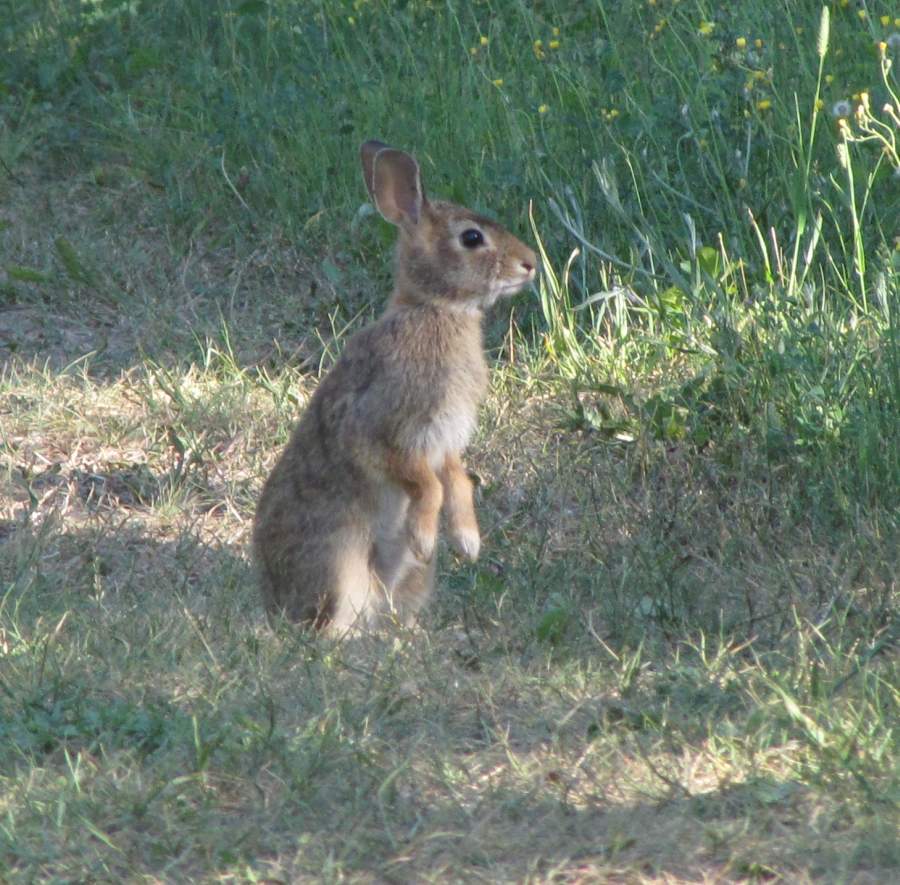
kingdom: Animalia
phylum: Chordata
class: Mammalia
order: Lagomorpha
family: Leporidae
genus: Sylvilagus
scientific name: Sylvilagus floridanus
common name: Eastern cottontail
